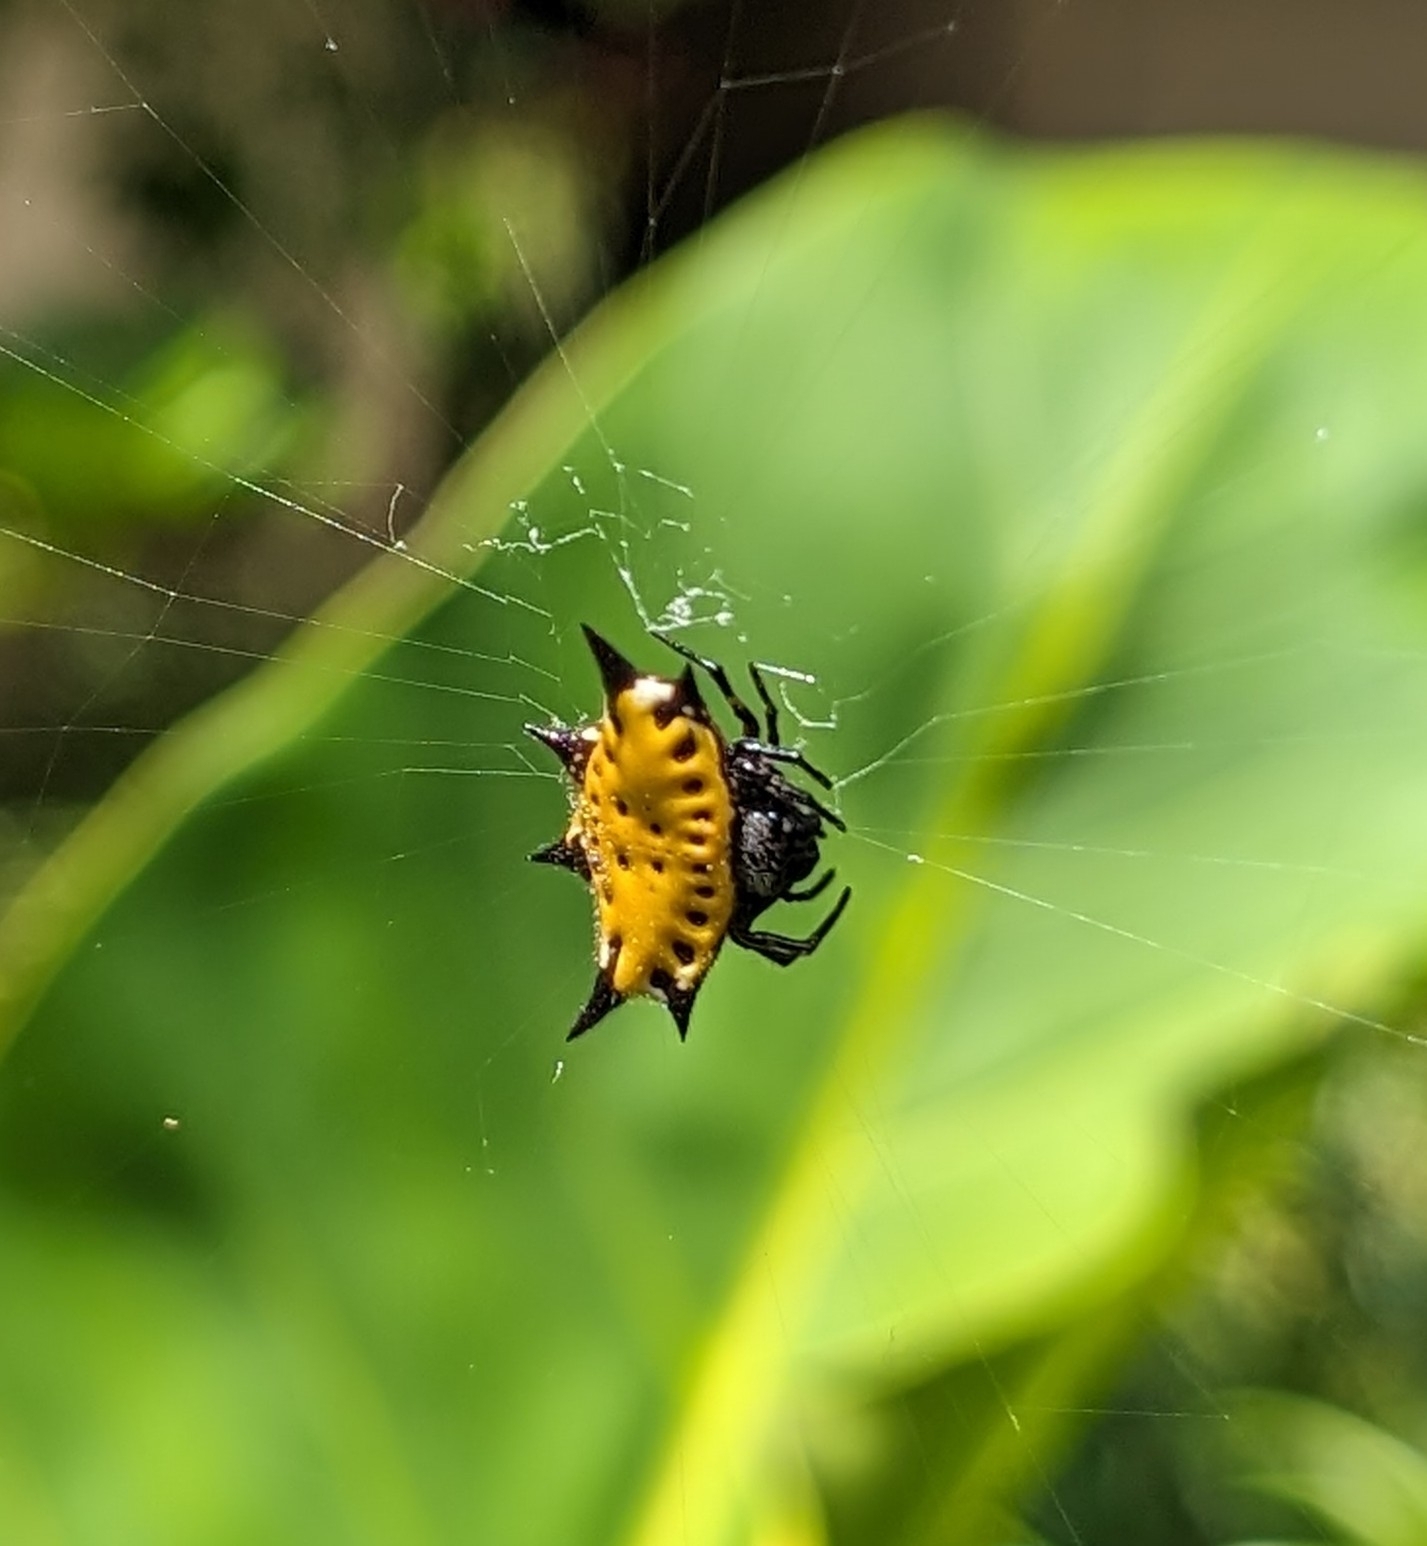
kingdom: Animalia
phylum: Arthropoda
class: Arachnida
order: Araneae
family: Araneidae
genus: Gasteracantha
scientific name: Gasteracantha cancriformis
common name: Orb weavers
